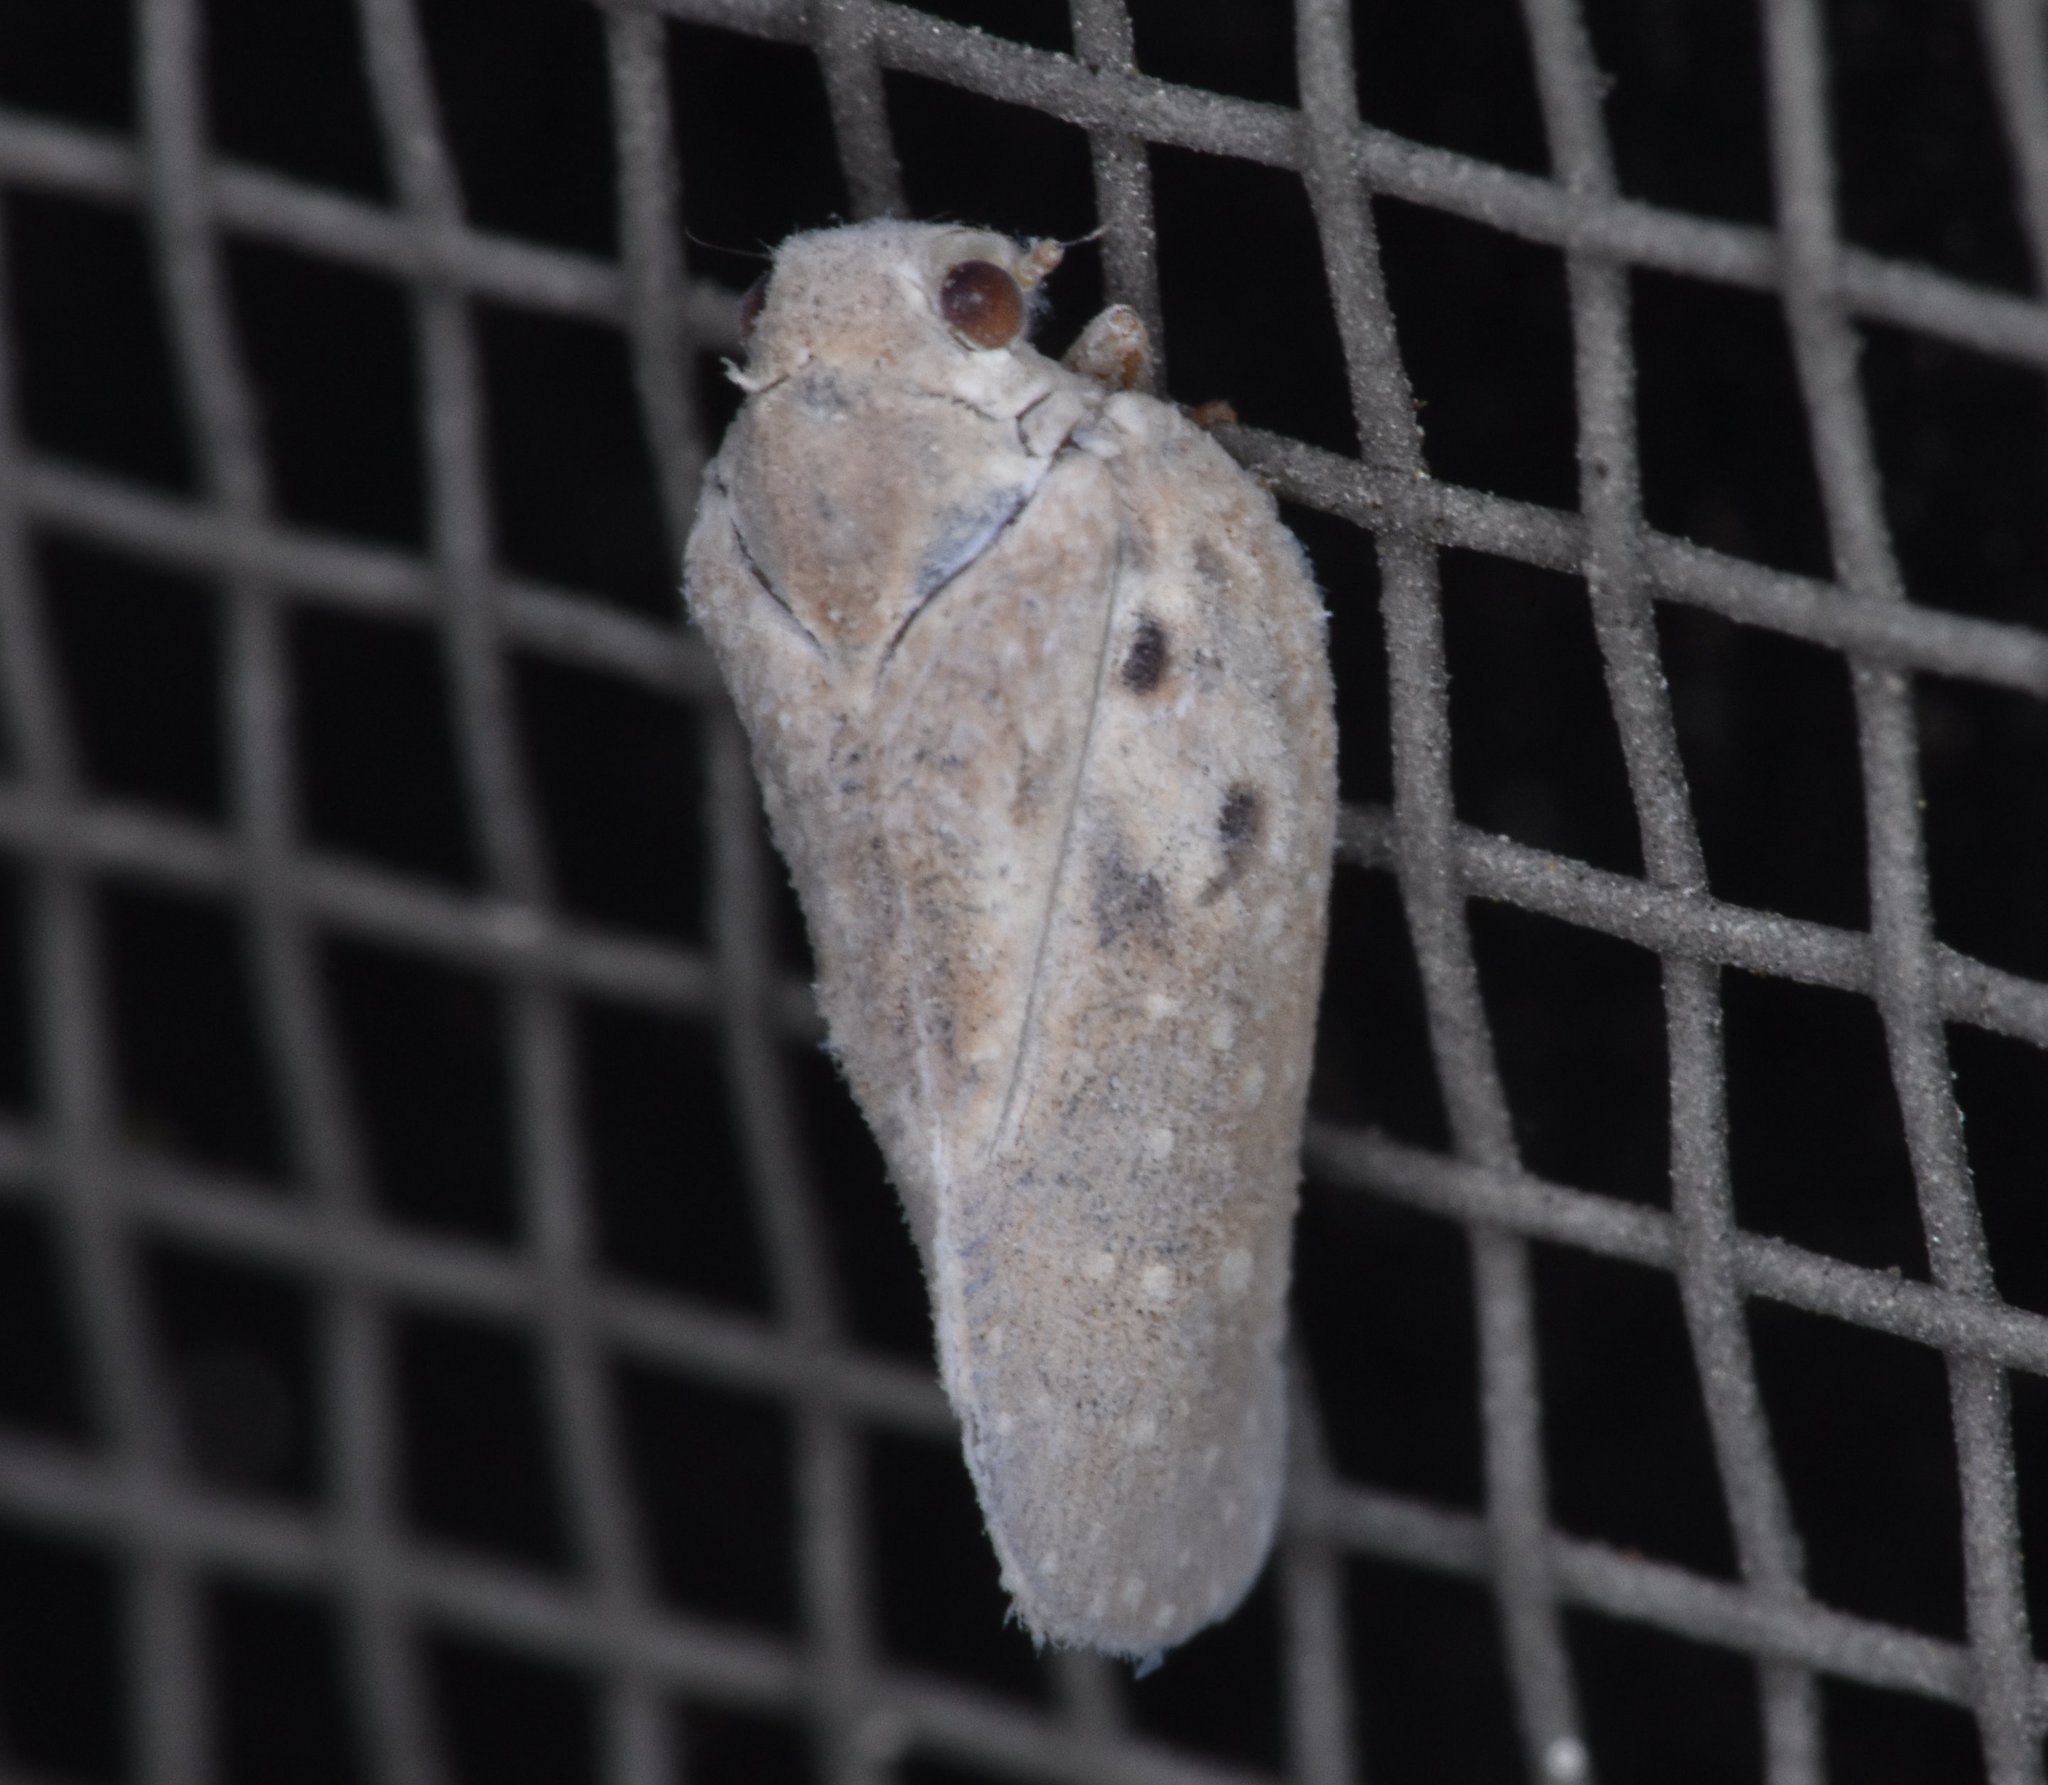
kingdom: Animalia
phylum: Arthropoda
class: Insecta
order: Hemiptera
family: Flatidae
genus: Metcalfa
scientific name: Metcalfa pruinosa
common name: Citrus flatid planthopper
